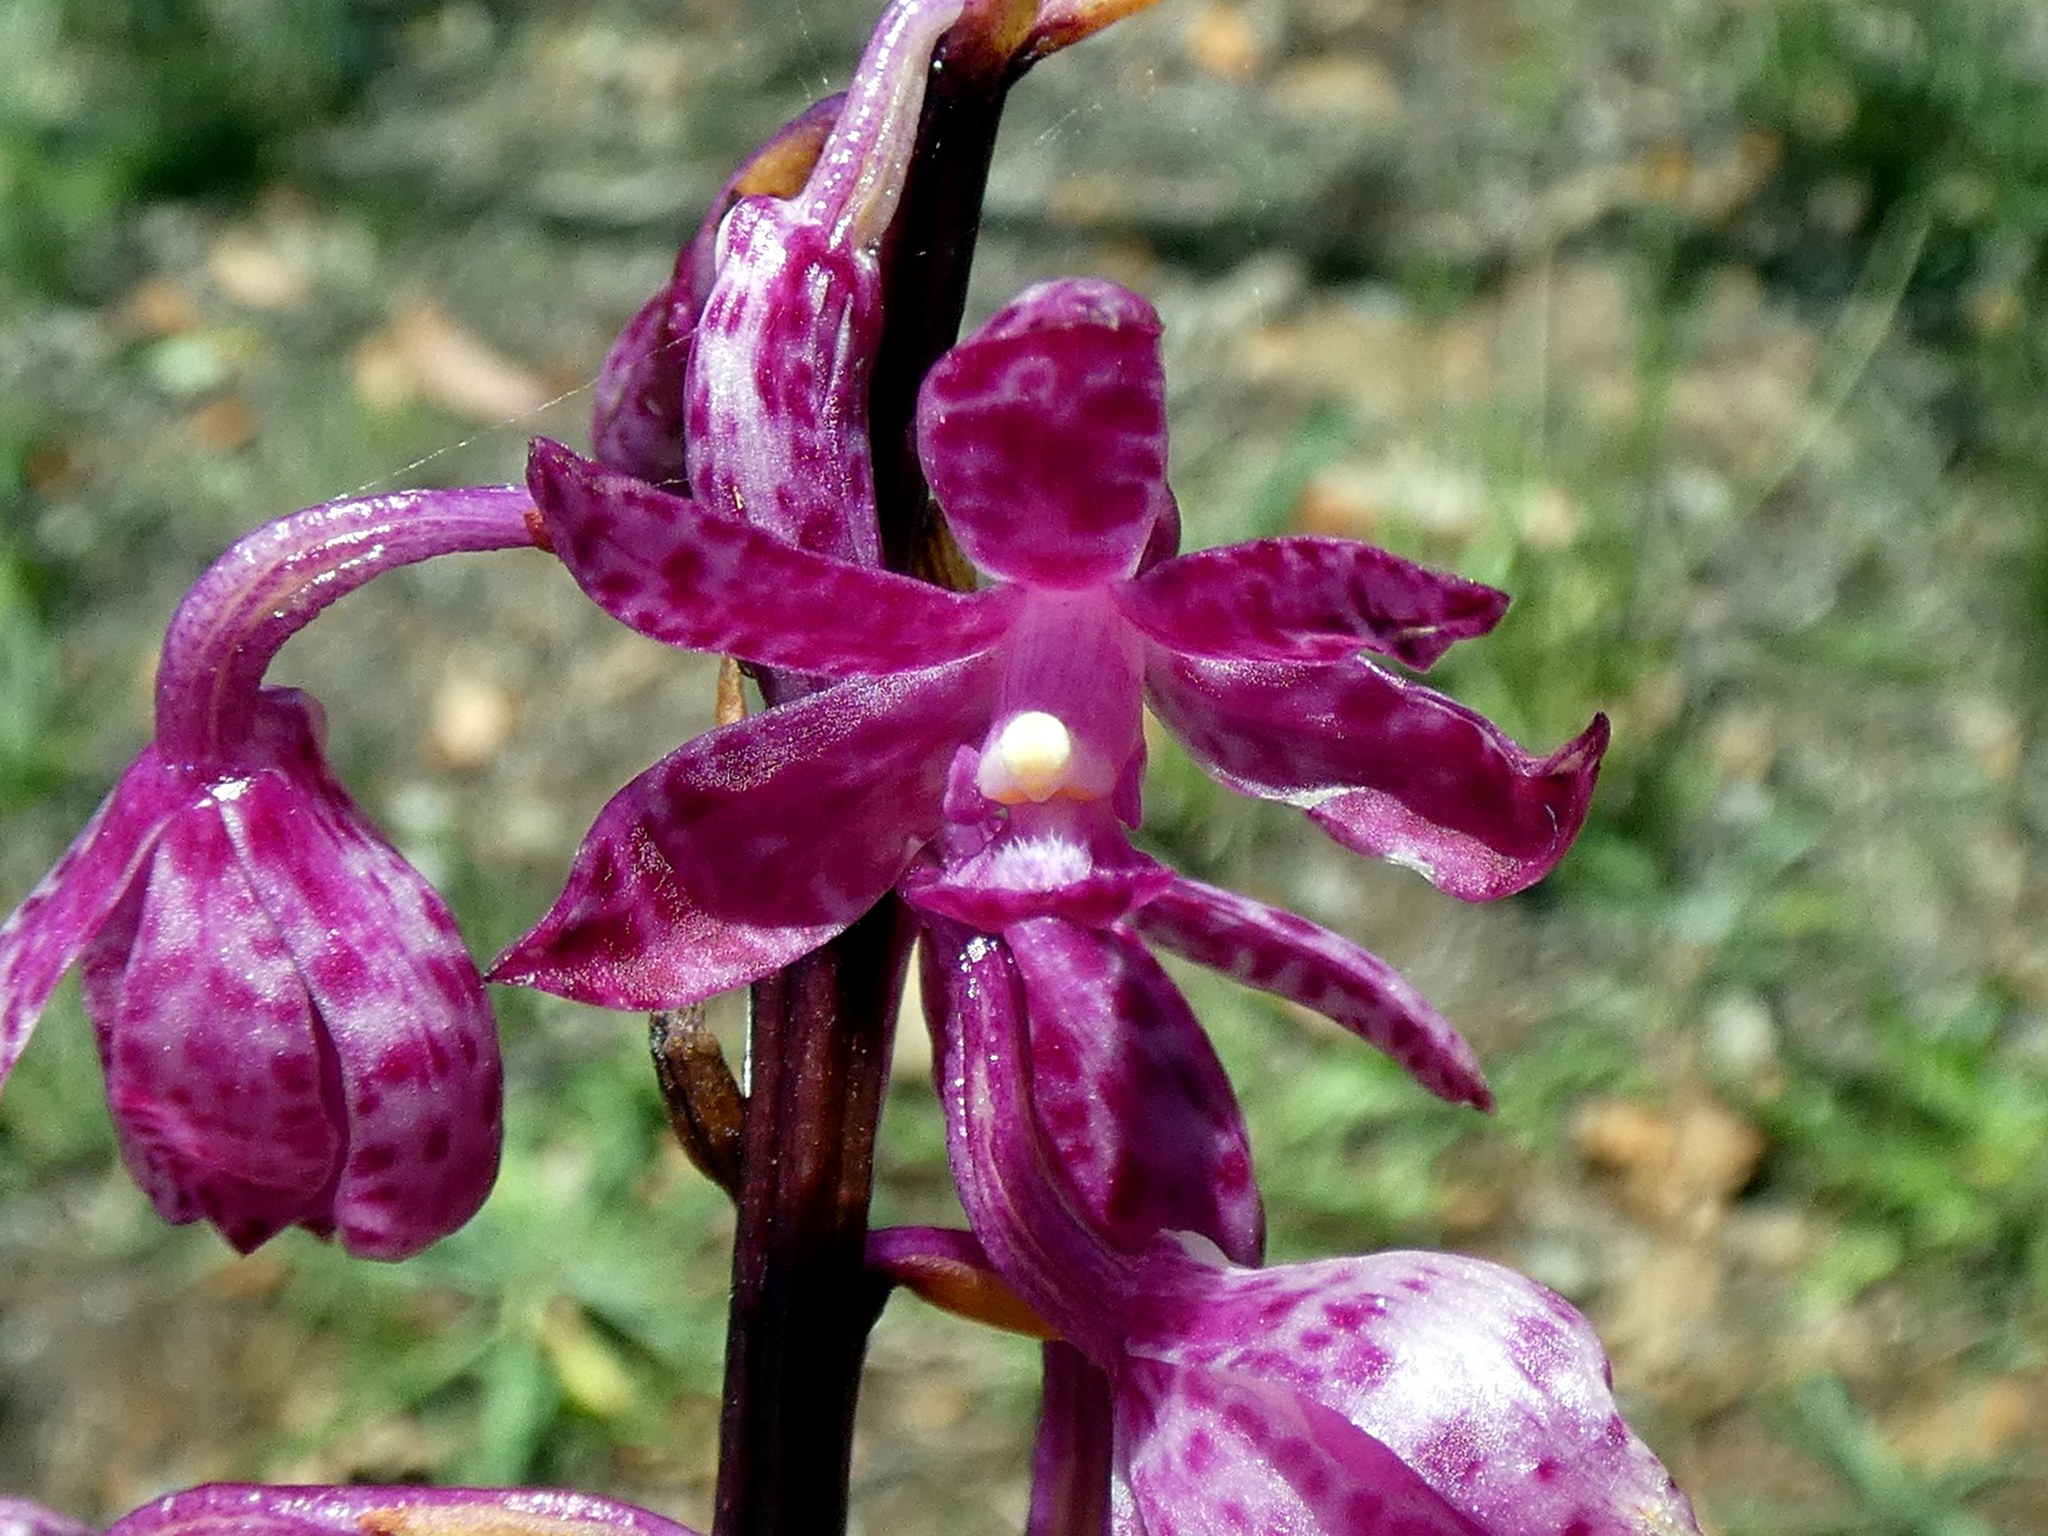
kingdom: Plantae
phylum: Tracheophyta
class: Liliopsida
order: Asparagales
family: Orchidaceae
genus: Dipodium
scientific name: Dipodium squamatum
